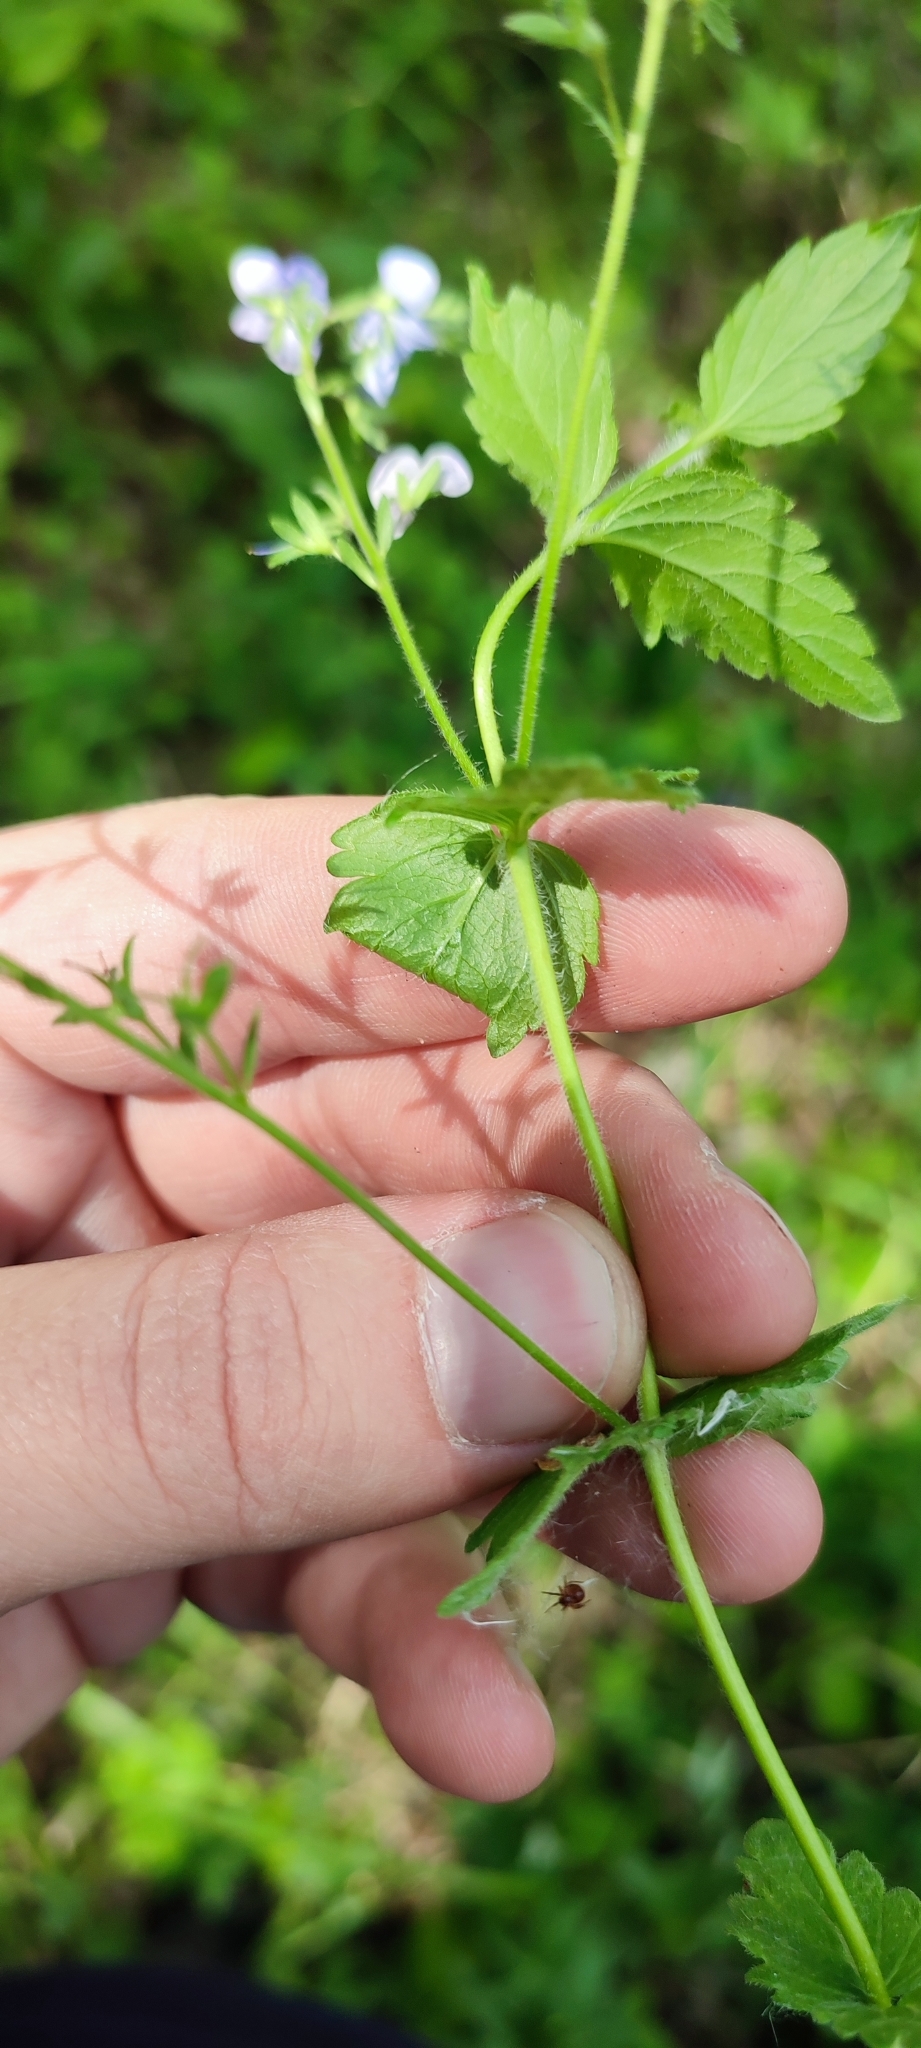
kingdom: Plantae
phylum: Tracheophyta
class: Magnoliopsida
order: Lamiales
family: Plantaginaceae
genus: Veronica
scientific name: Veronica chamaedrys
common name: Germander speedwell
